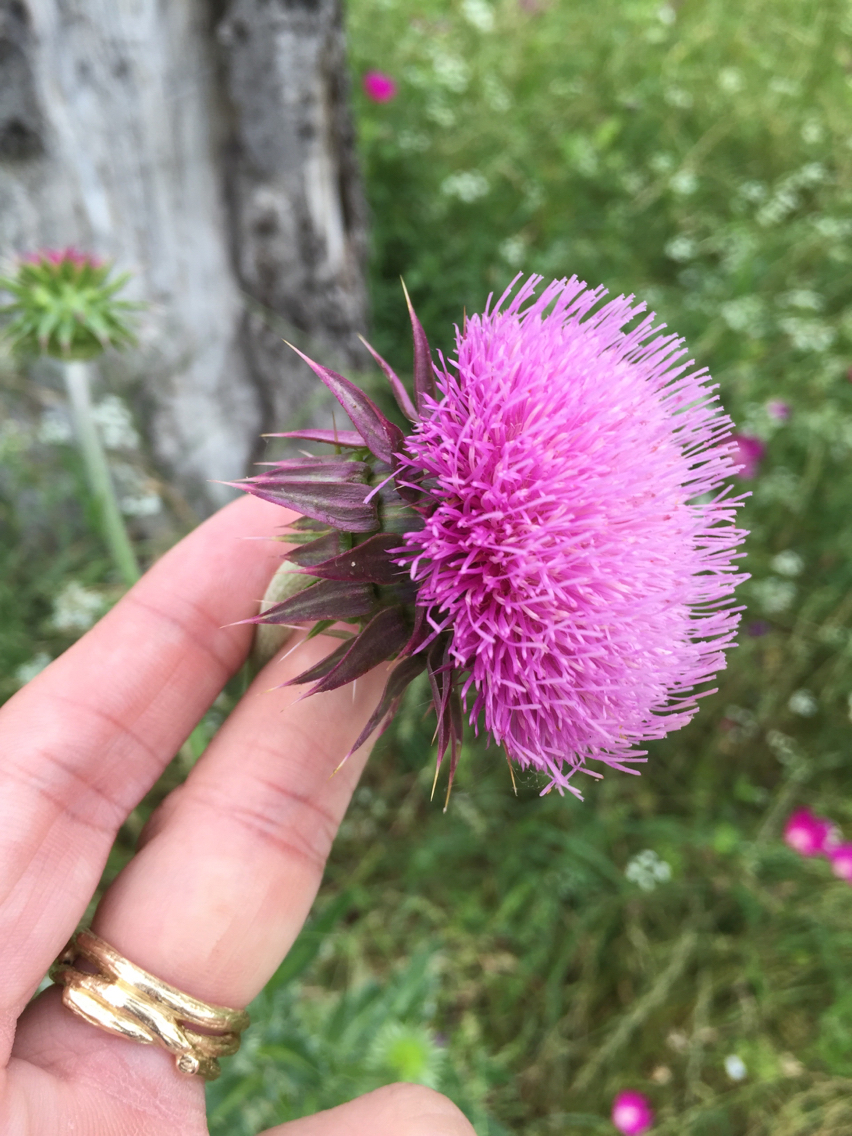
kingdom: Plantae
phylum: Tracheophyta
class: Magnoliopsida
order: Asterales
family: Asteraceae
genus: Carduus
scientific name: Carduus nutans
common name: Musk thistle
